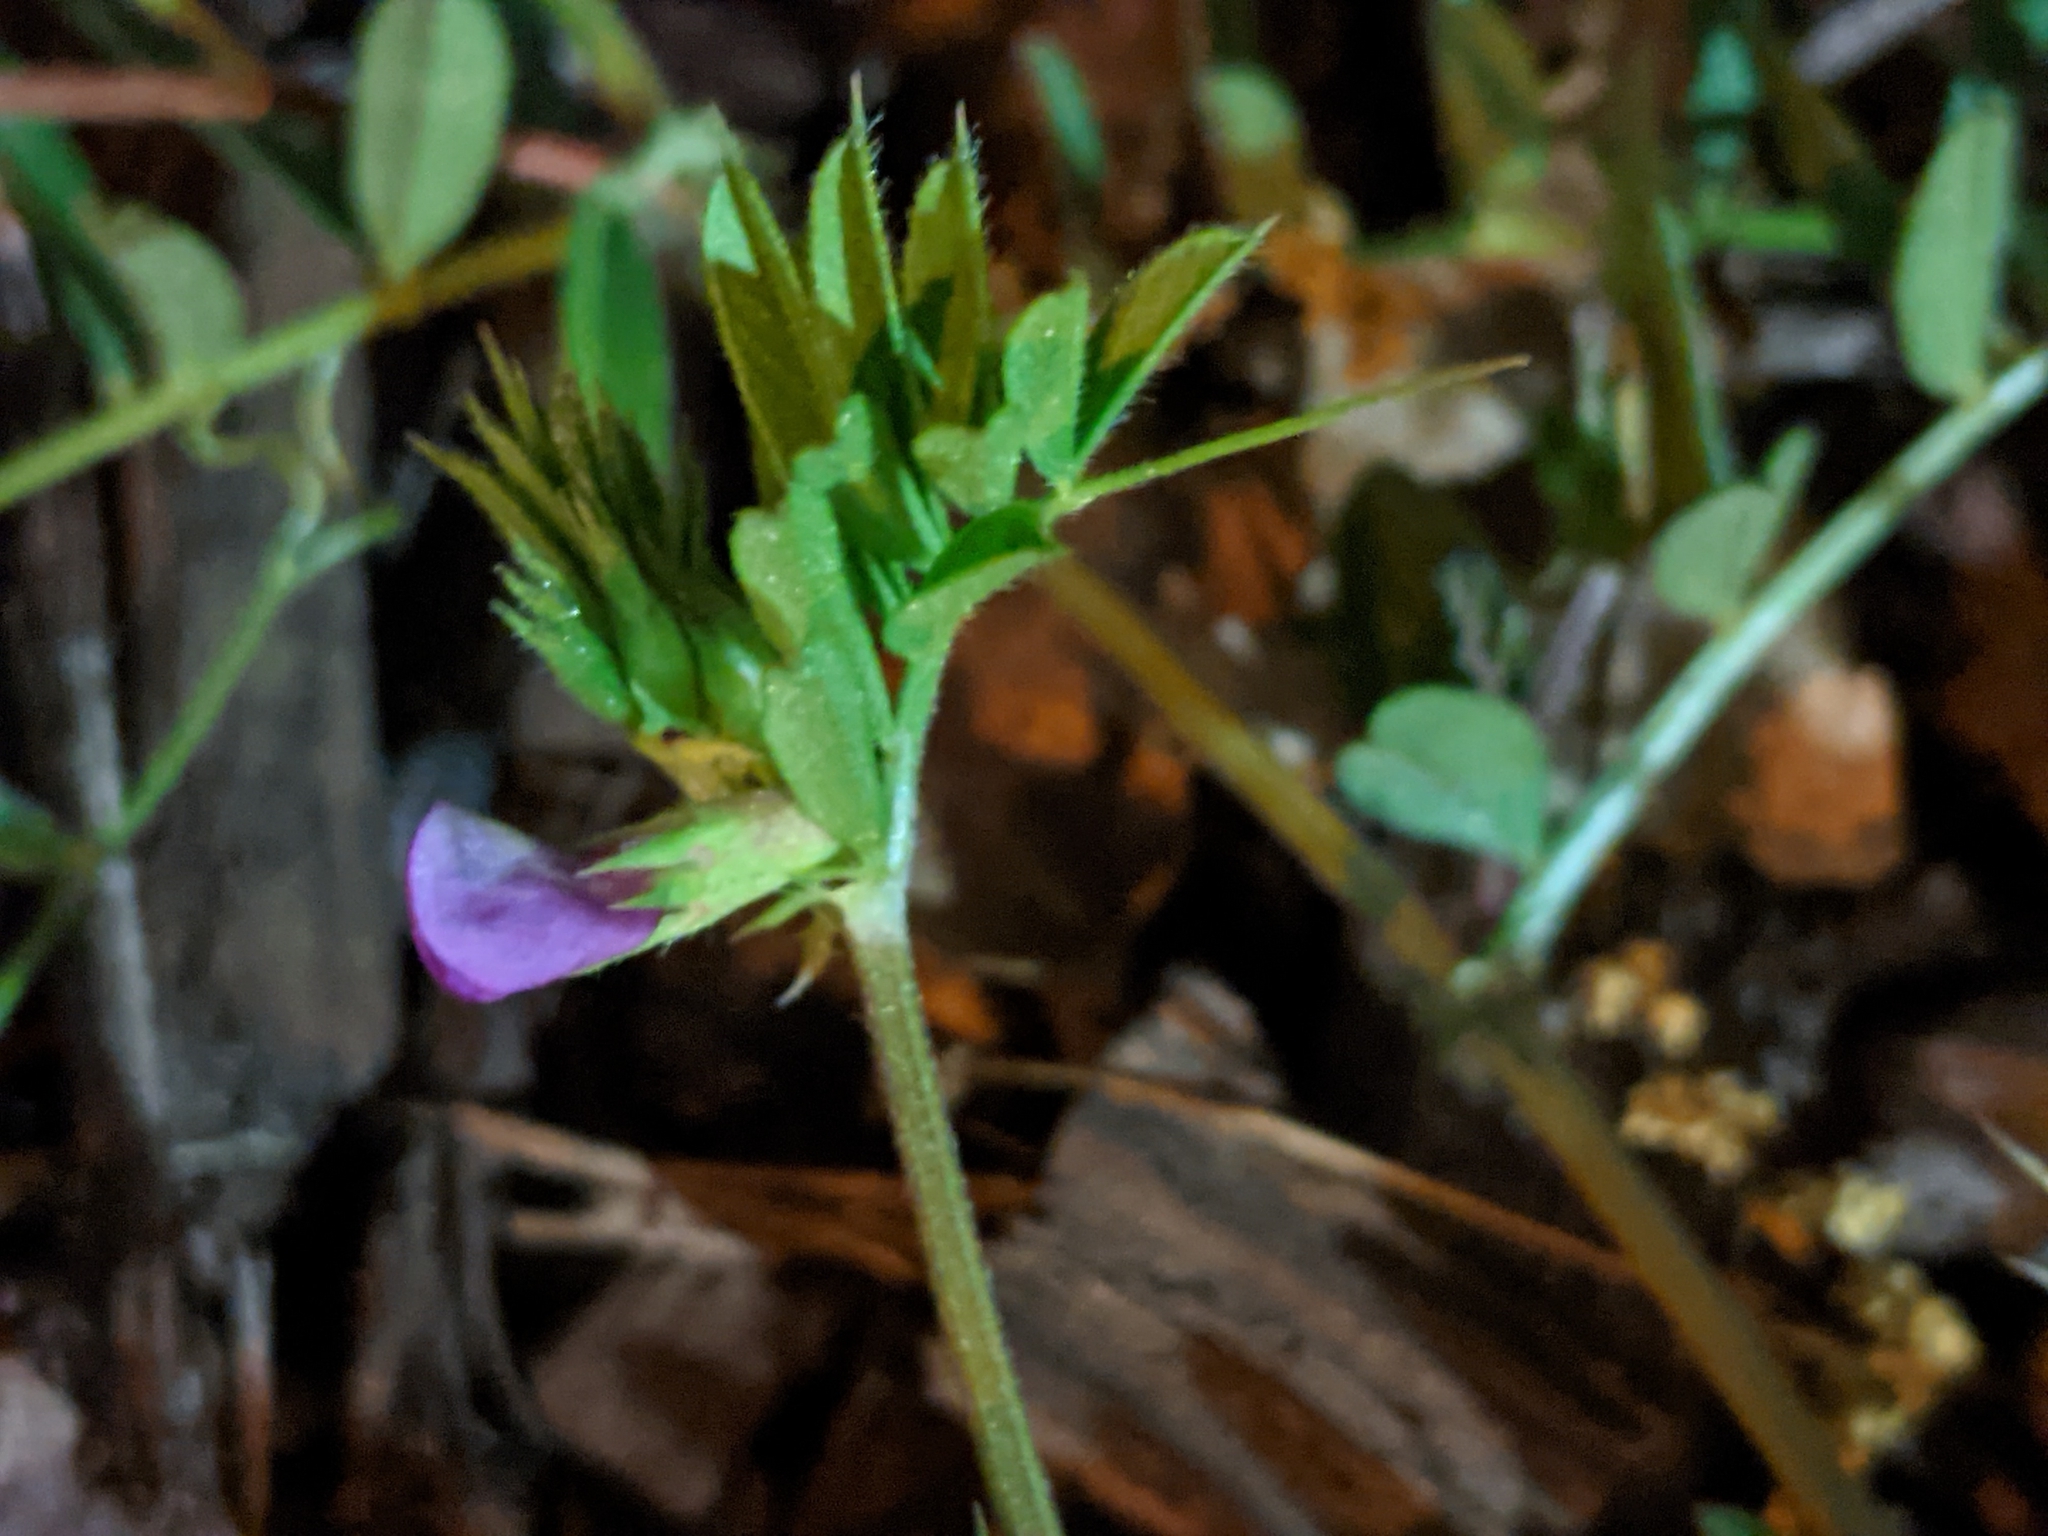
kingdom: Plantae
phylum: Tracheophyta
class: Magnoliopsida
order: Fabales
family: Fabaceae
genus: Vicia
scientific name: Vicia sativa
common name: Garden vetch
